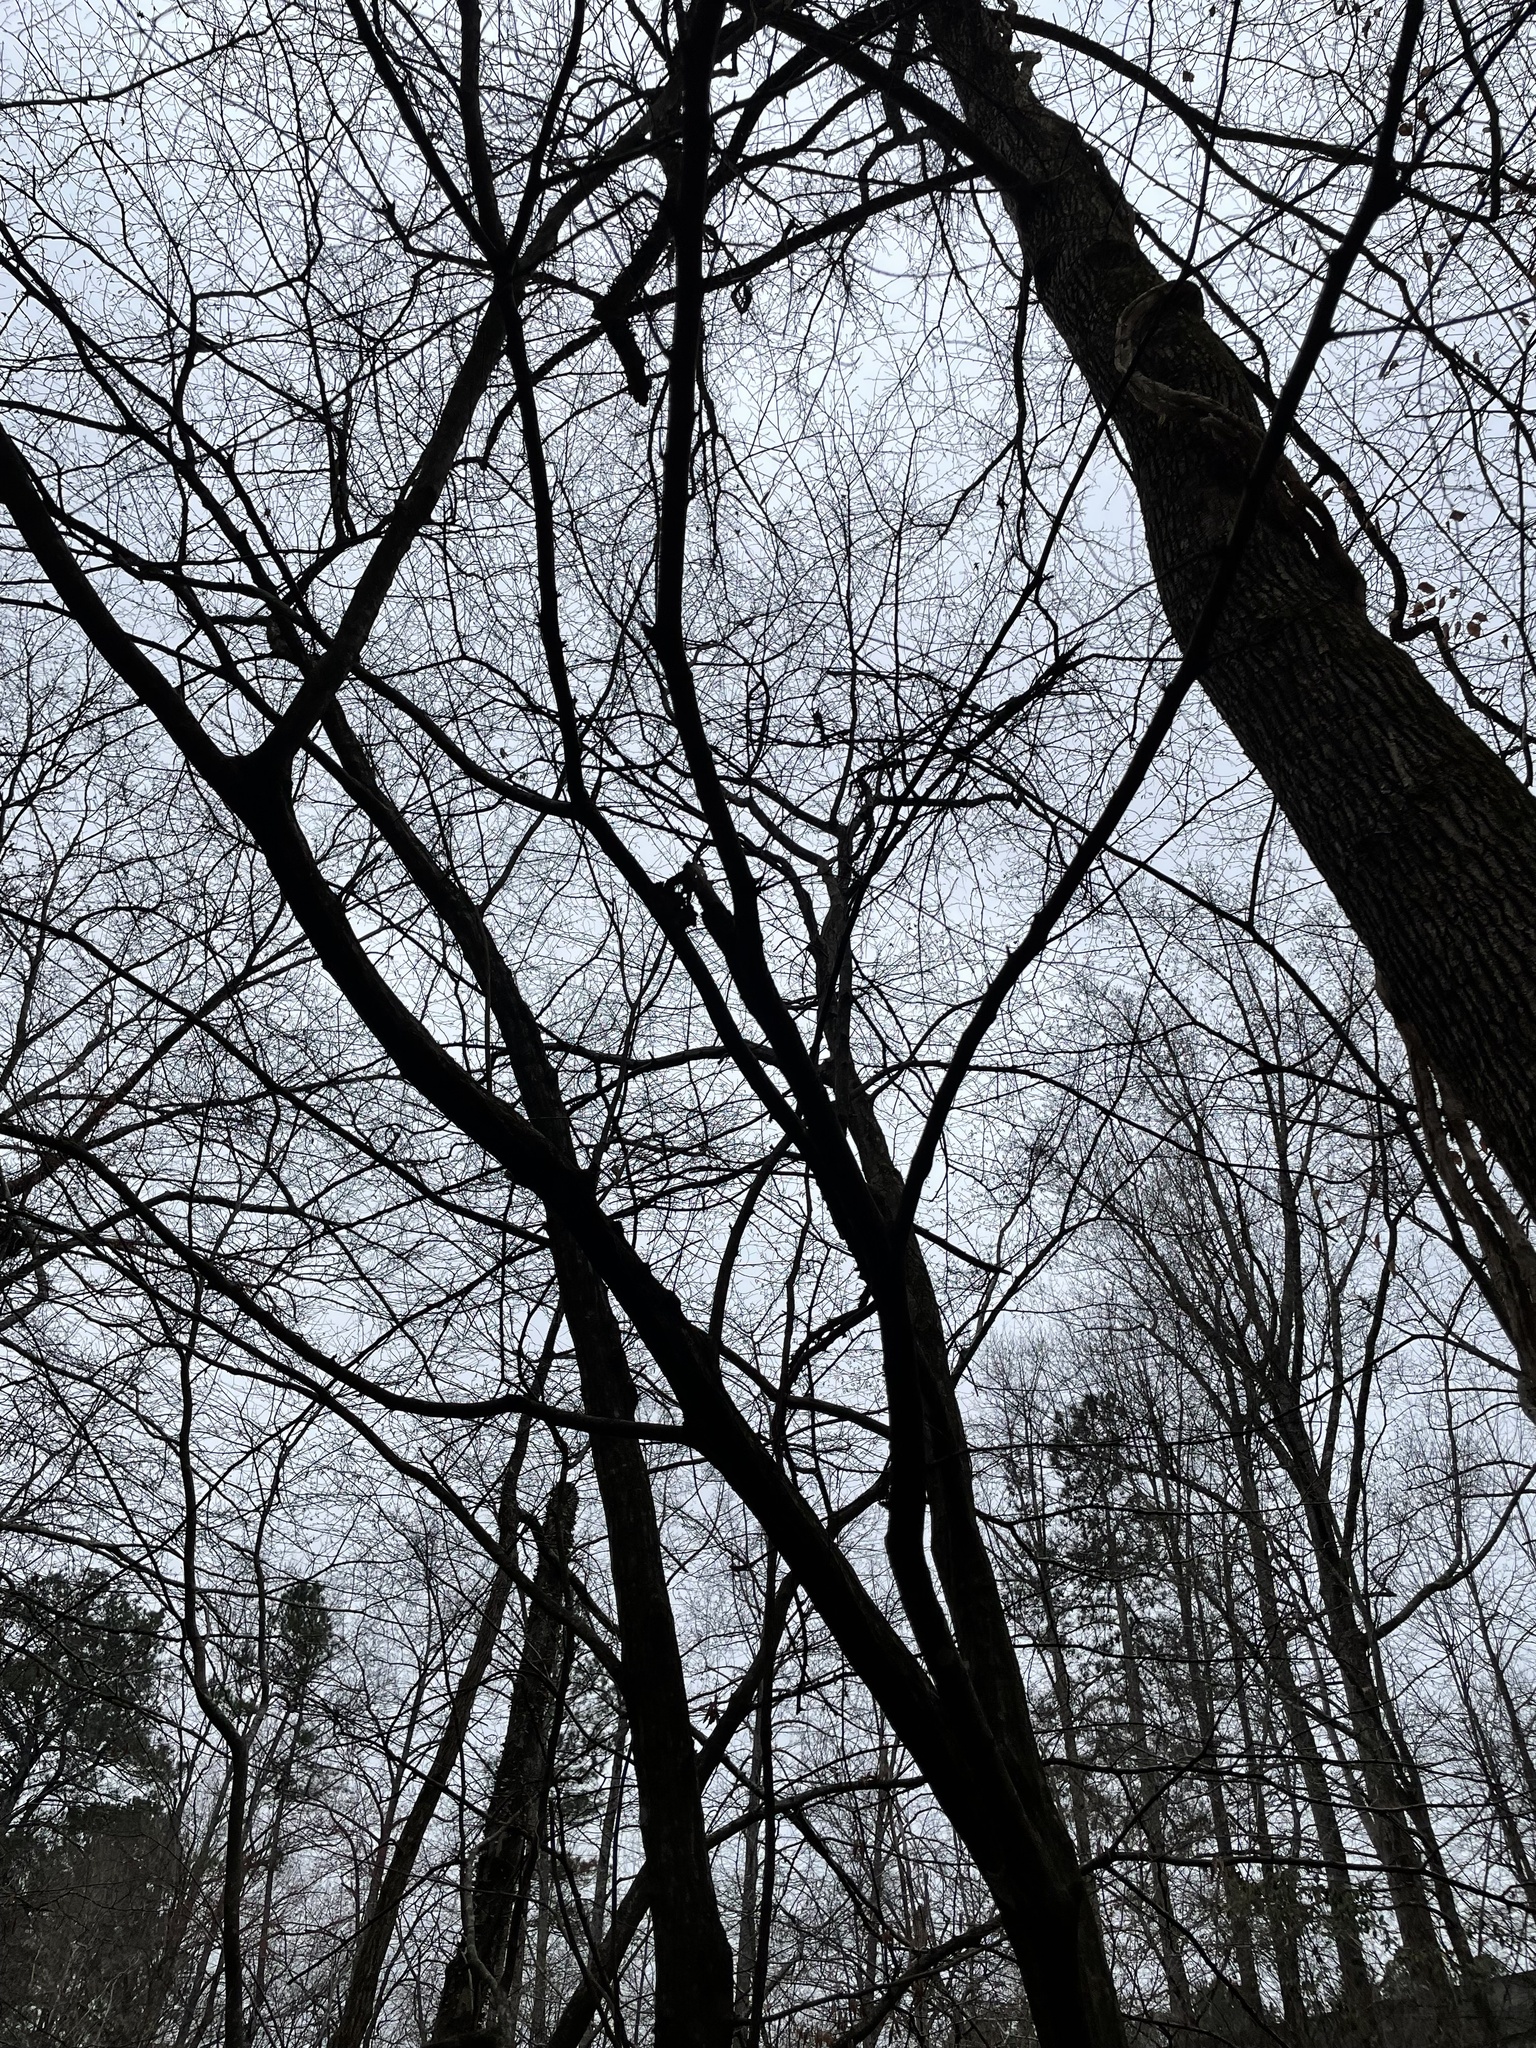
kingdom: Plantae
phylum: Tracheophyta
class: Magnoliopsida
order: Fagales
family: Betulaceae
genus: Carpinus
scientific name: Carpinus caroliniana
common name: American hornbeam
